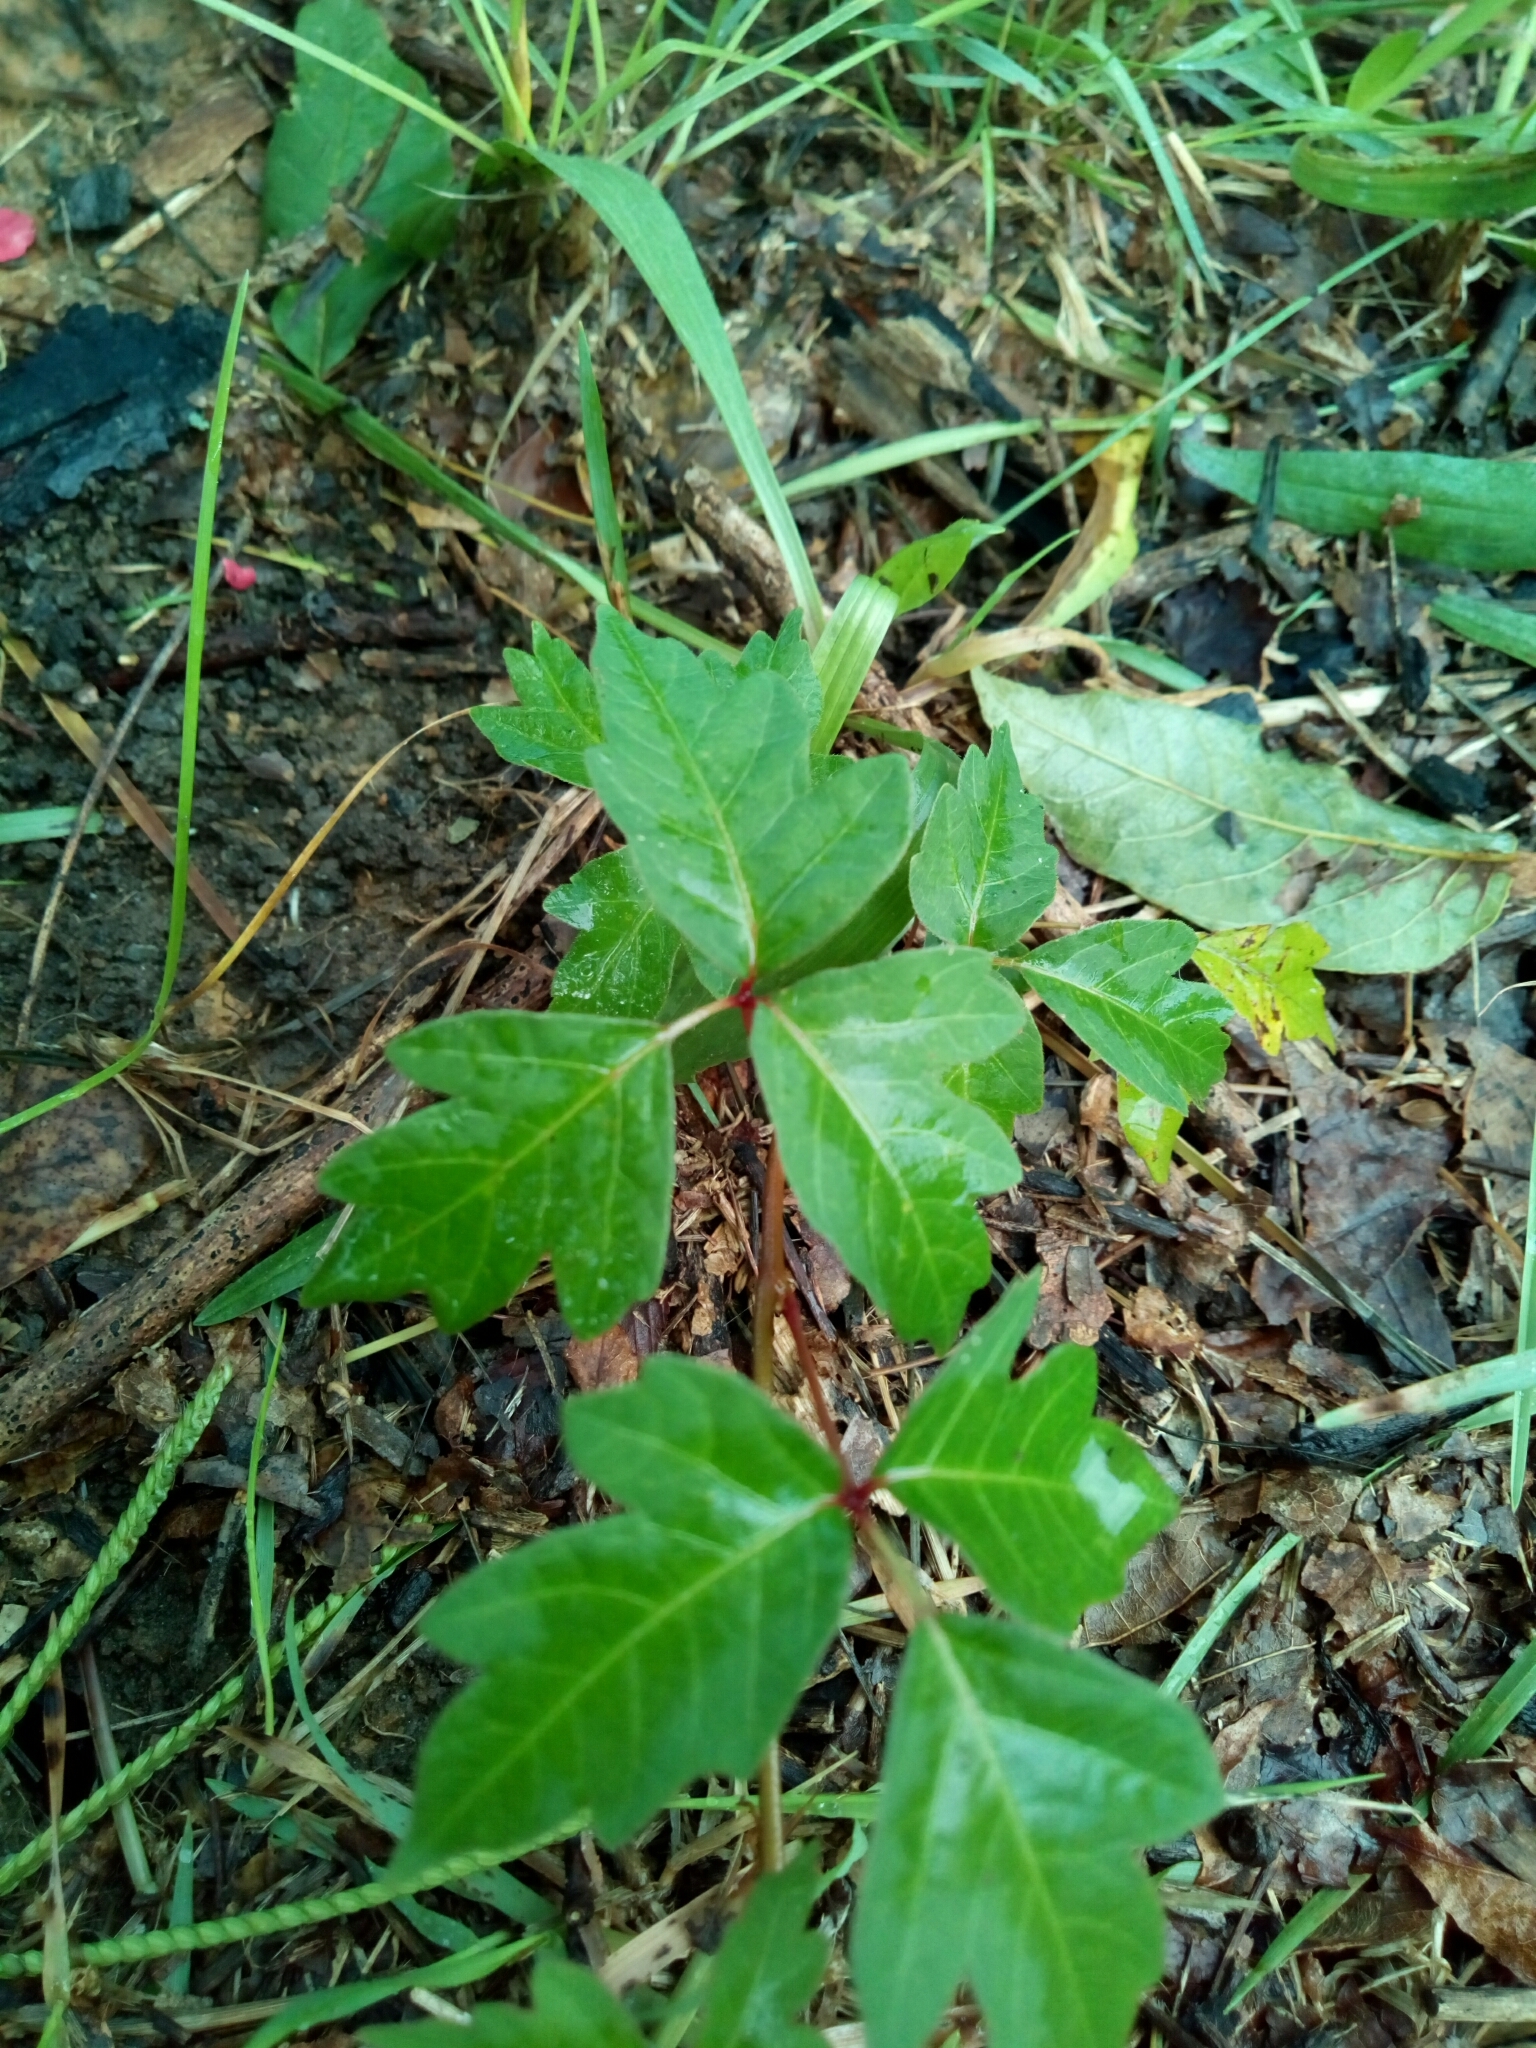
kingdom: Plantae
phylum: Tracheophyta
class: Magnoliopsida
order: Sapindales
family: Anacardiaceae
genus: Toxicodendron
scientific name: Toxicodendron radicans
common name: Poison ivy
